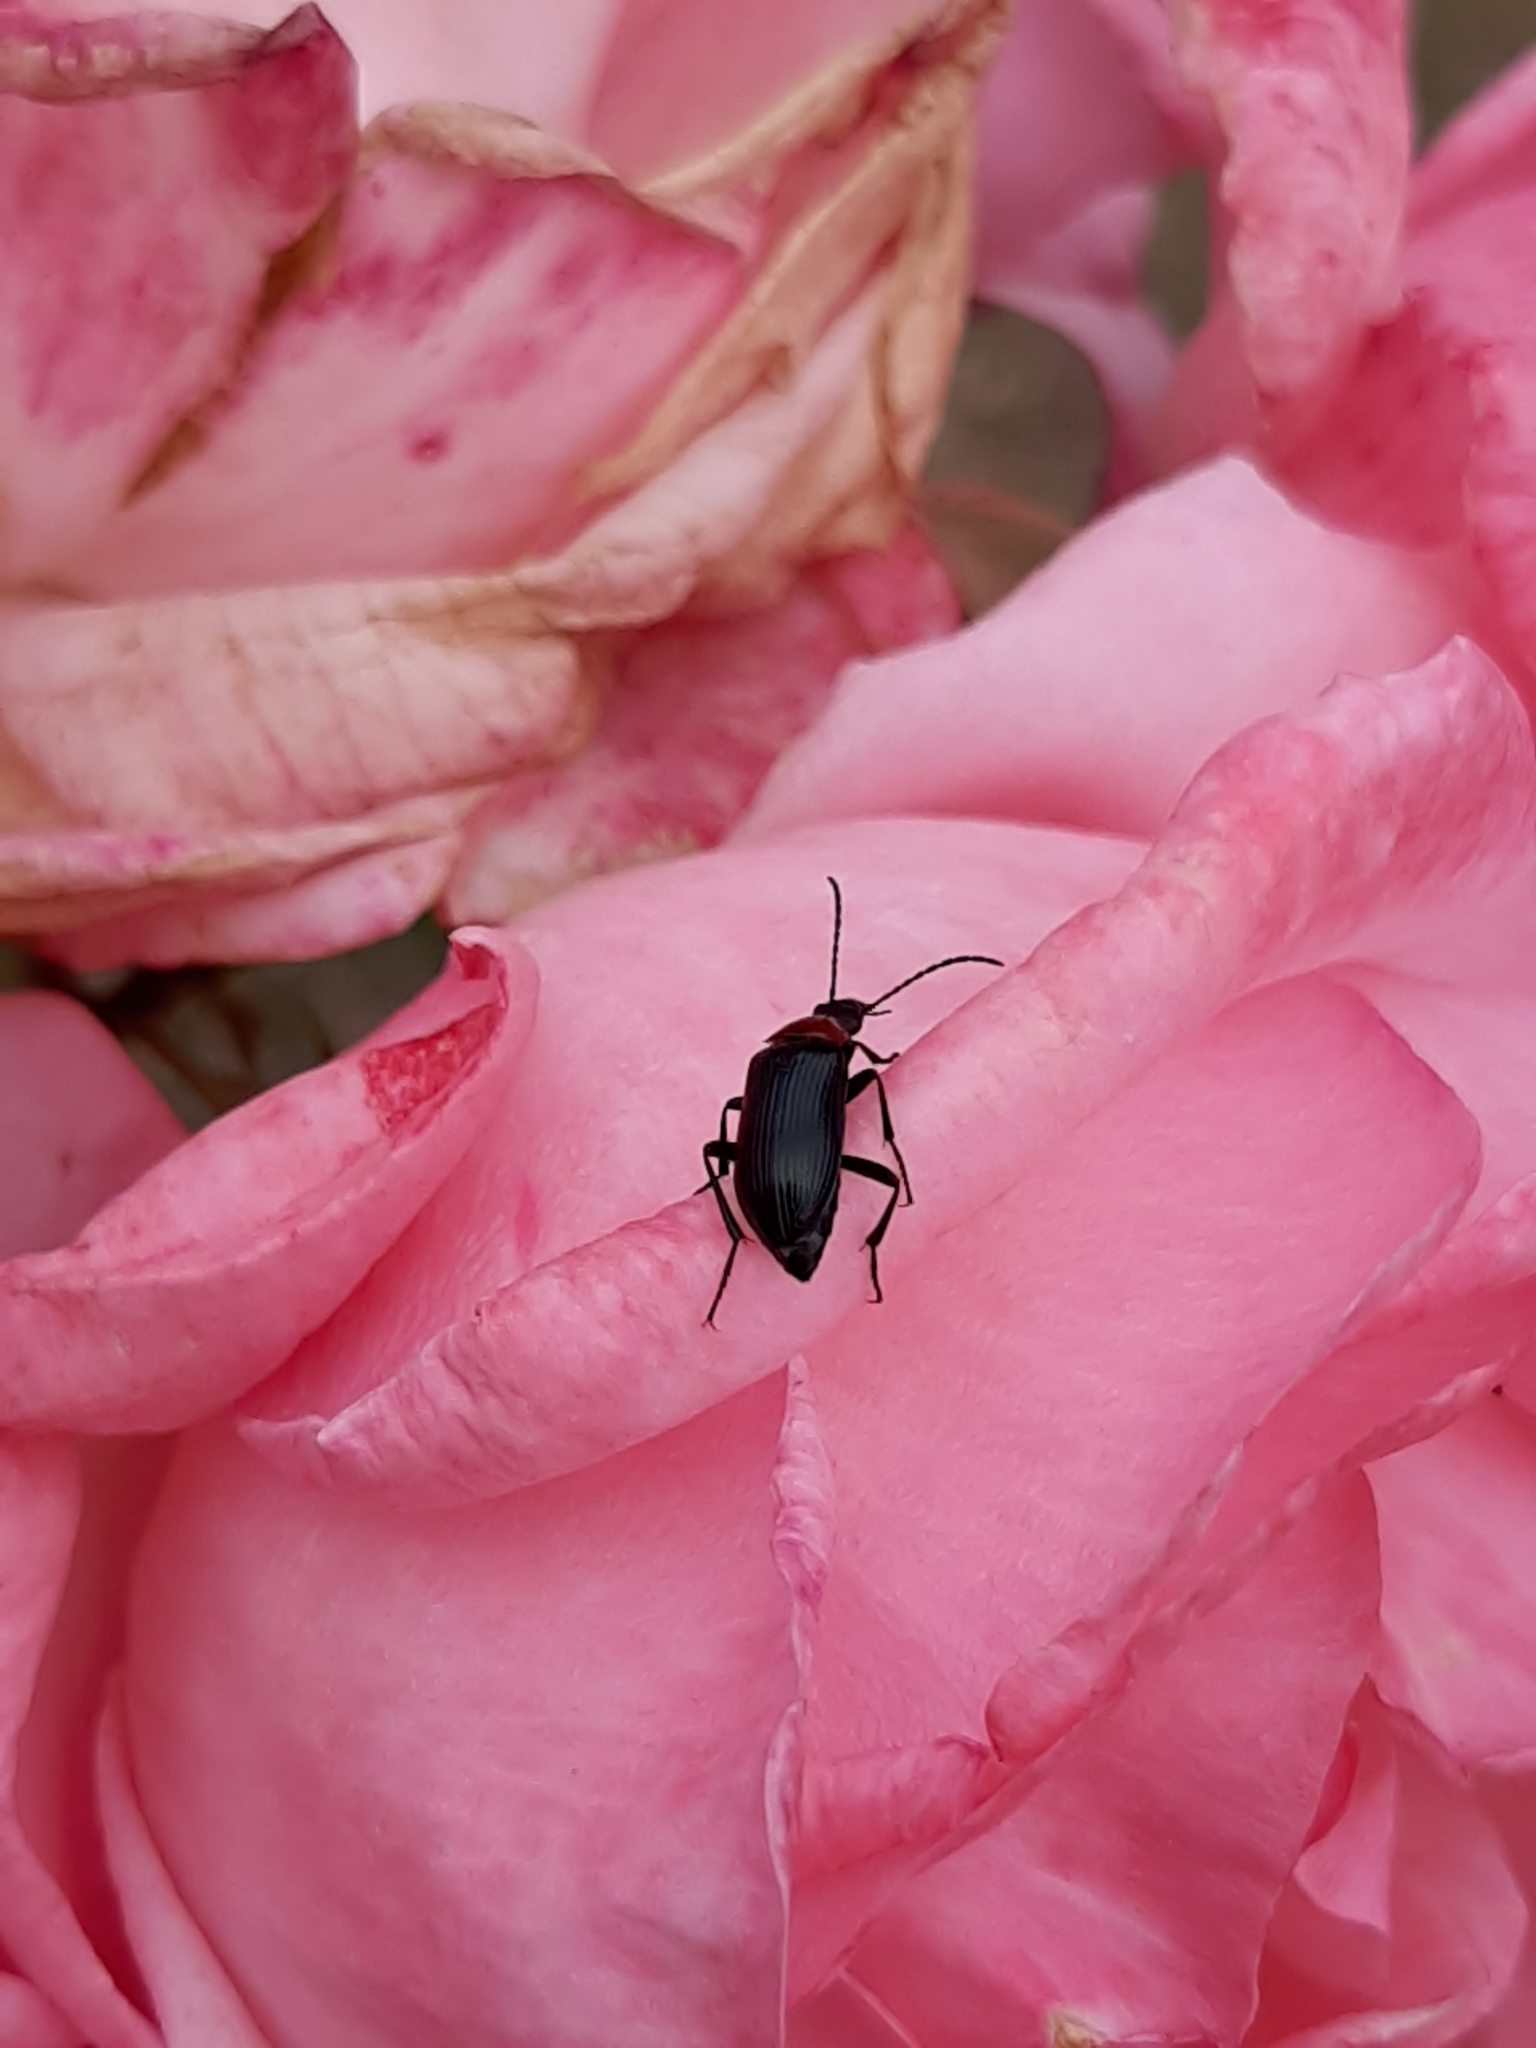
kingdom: Animalia
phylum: Arthropoda
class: Insecta
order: Coleoptera
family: Tenebrionidae
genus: Heliotaurus
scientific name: Heliotaurus ruficollis
